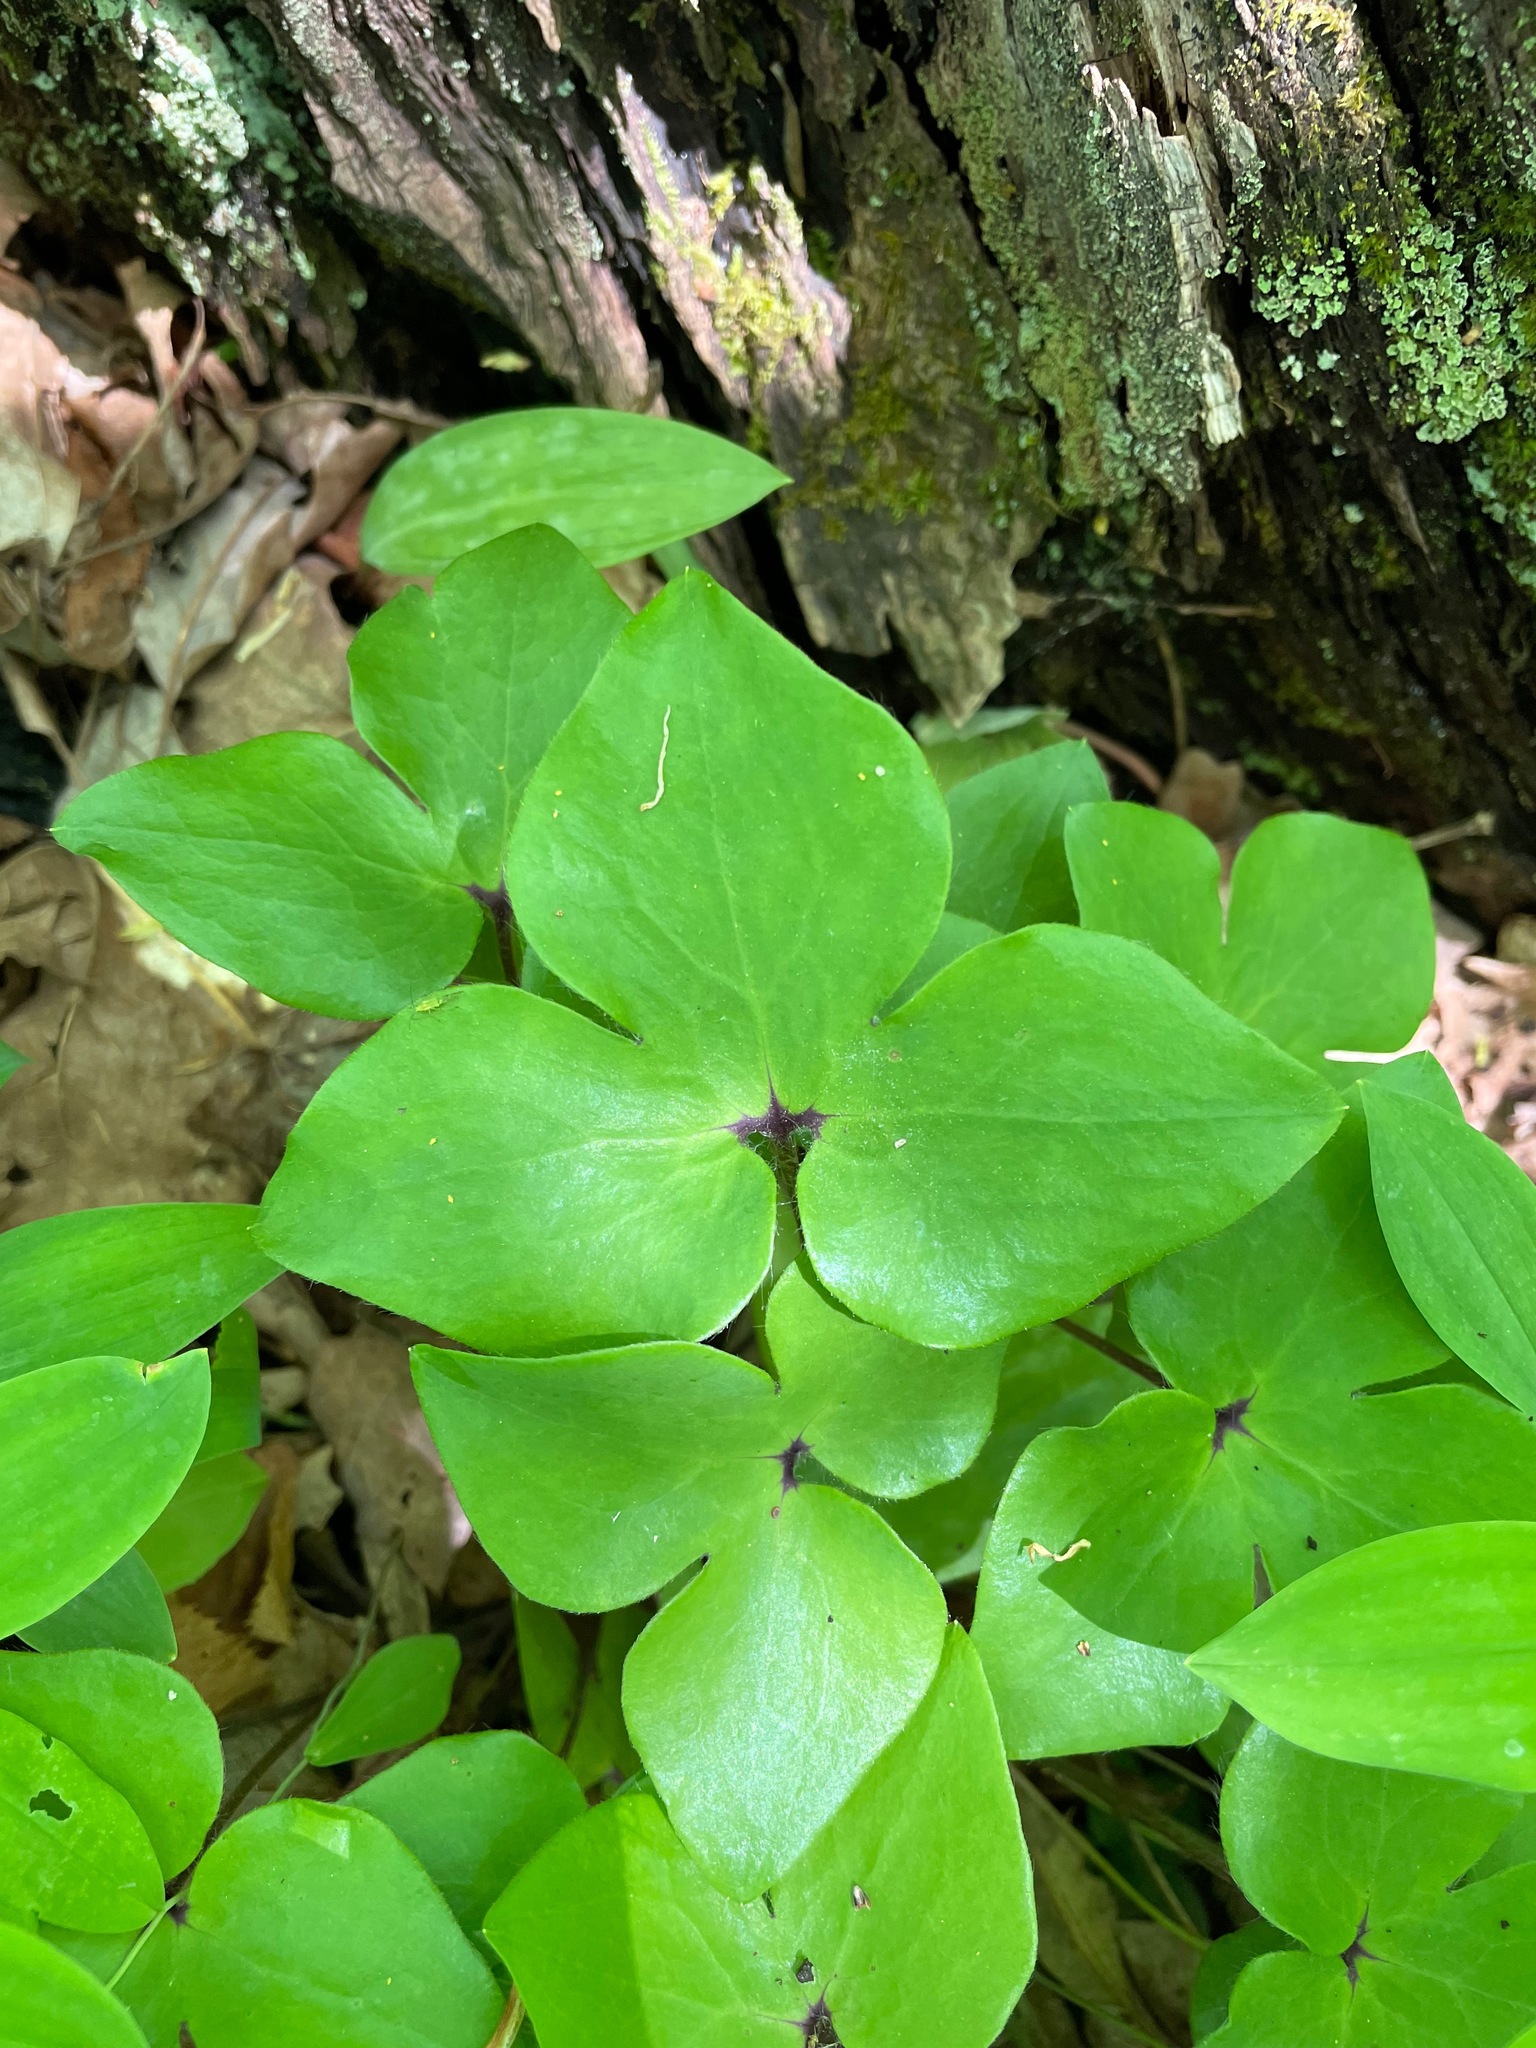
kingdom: Plantae
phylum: Tracheophyta
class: Magnoliopsida
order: Ranunculales
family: Ranunculaceae
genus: Hepatica
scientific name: Hepatica acutiloba
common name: Sharp-lobed hepatica
